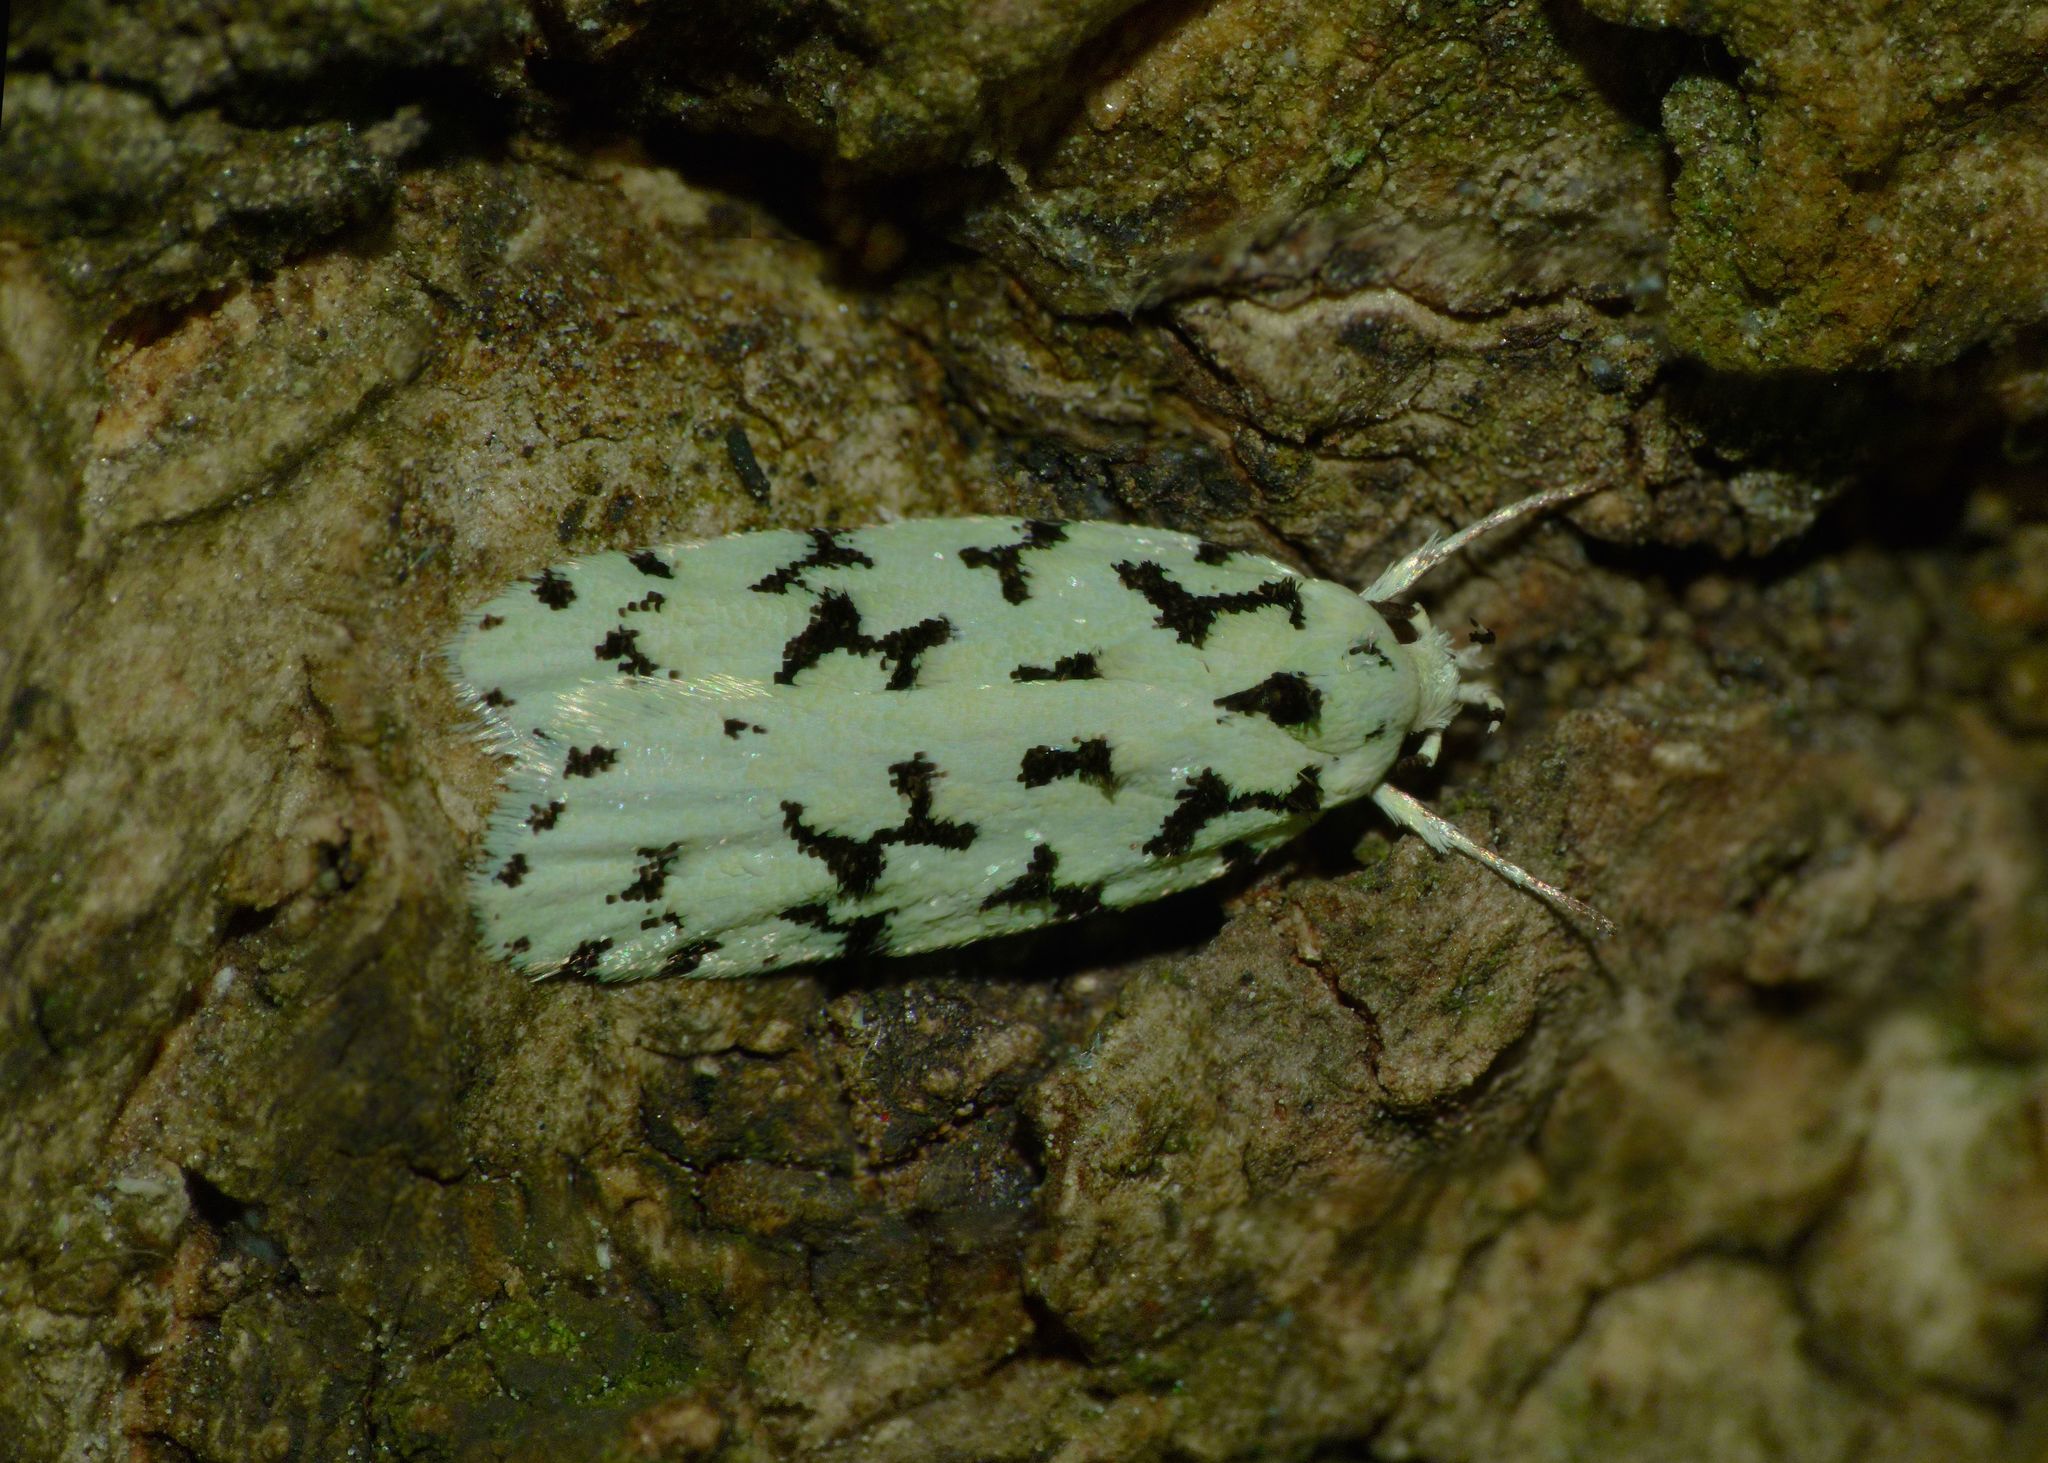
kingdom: Animalia
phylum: Arthropoda
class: Insecta
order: Lepidoptera
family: Oecophoridae
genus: Izatha
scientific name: Izatha huttoni
